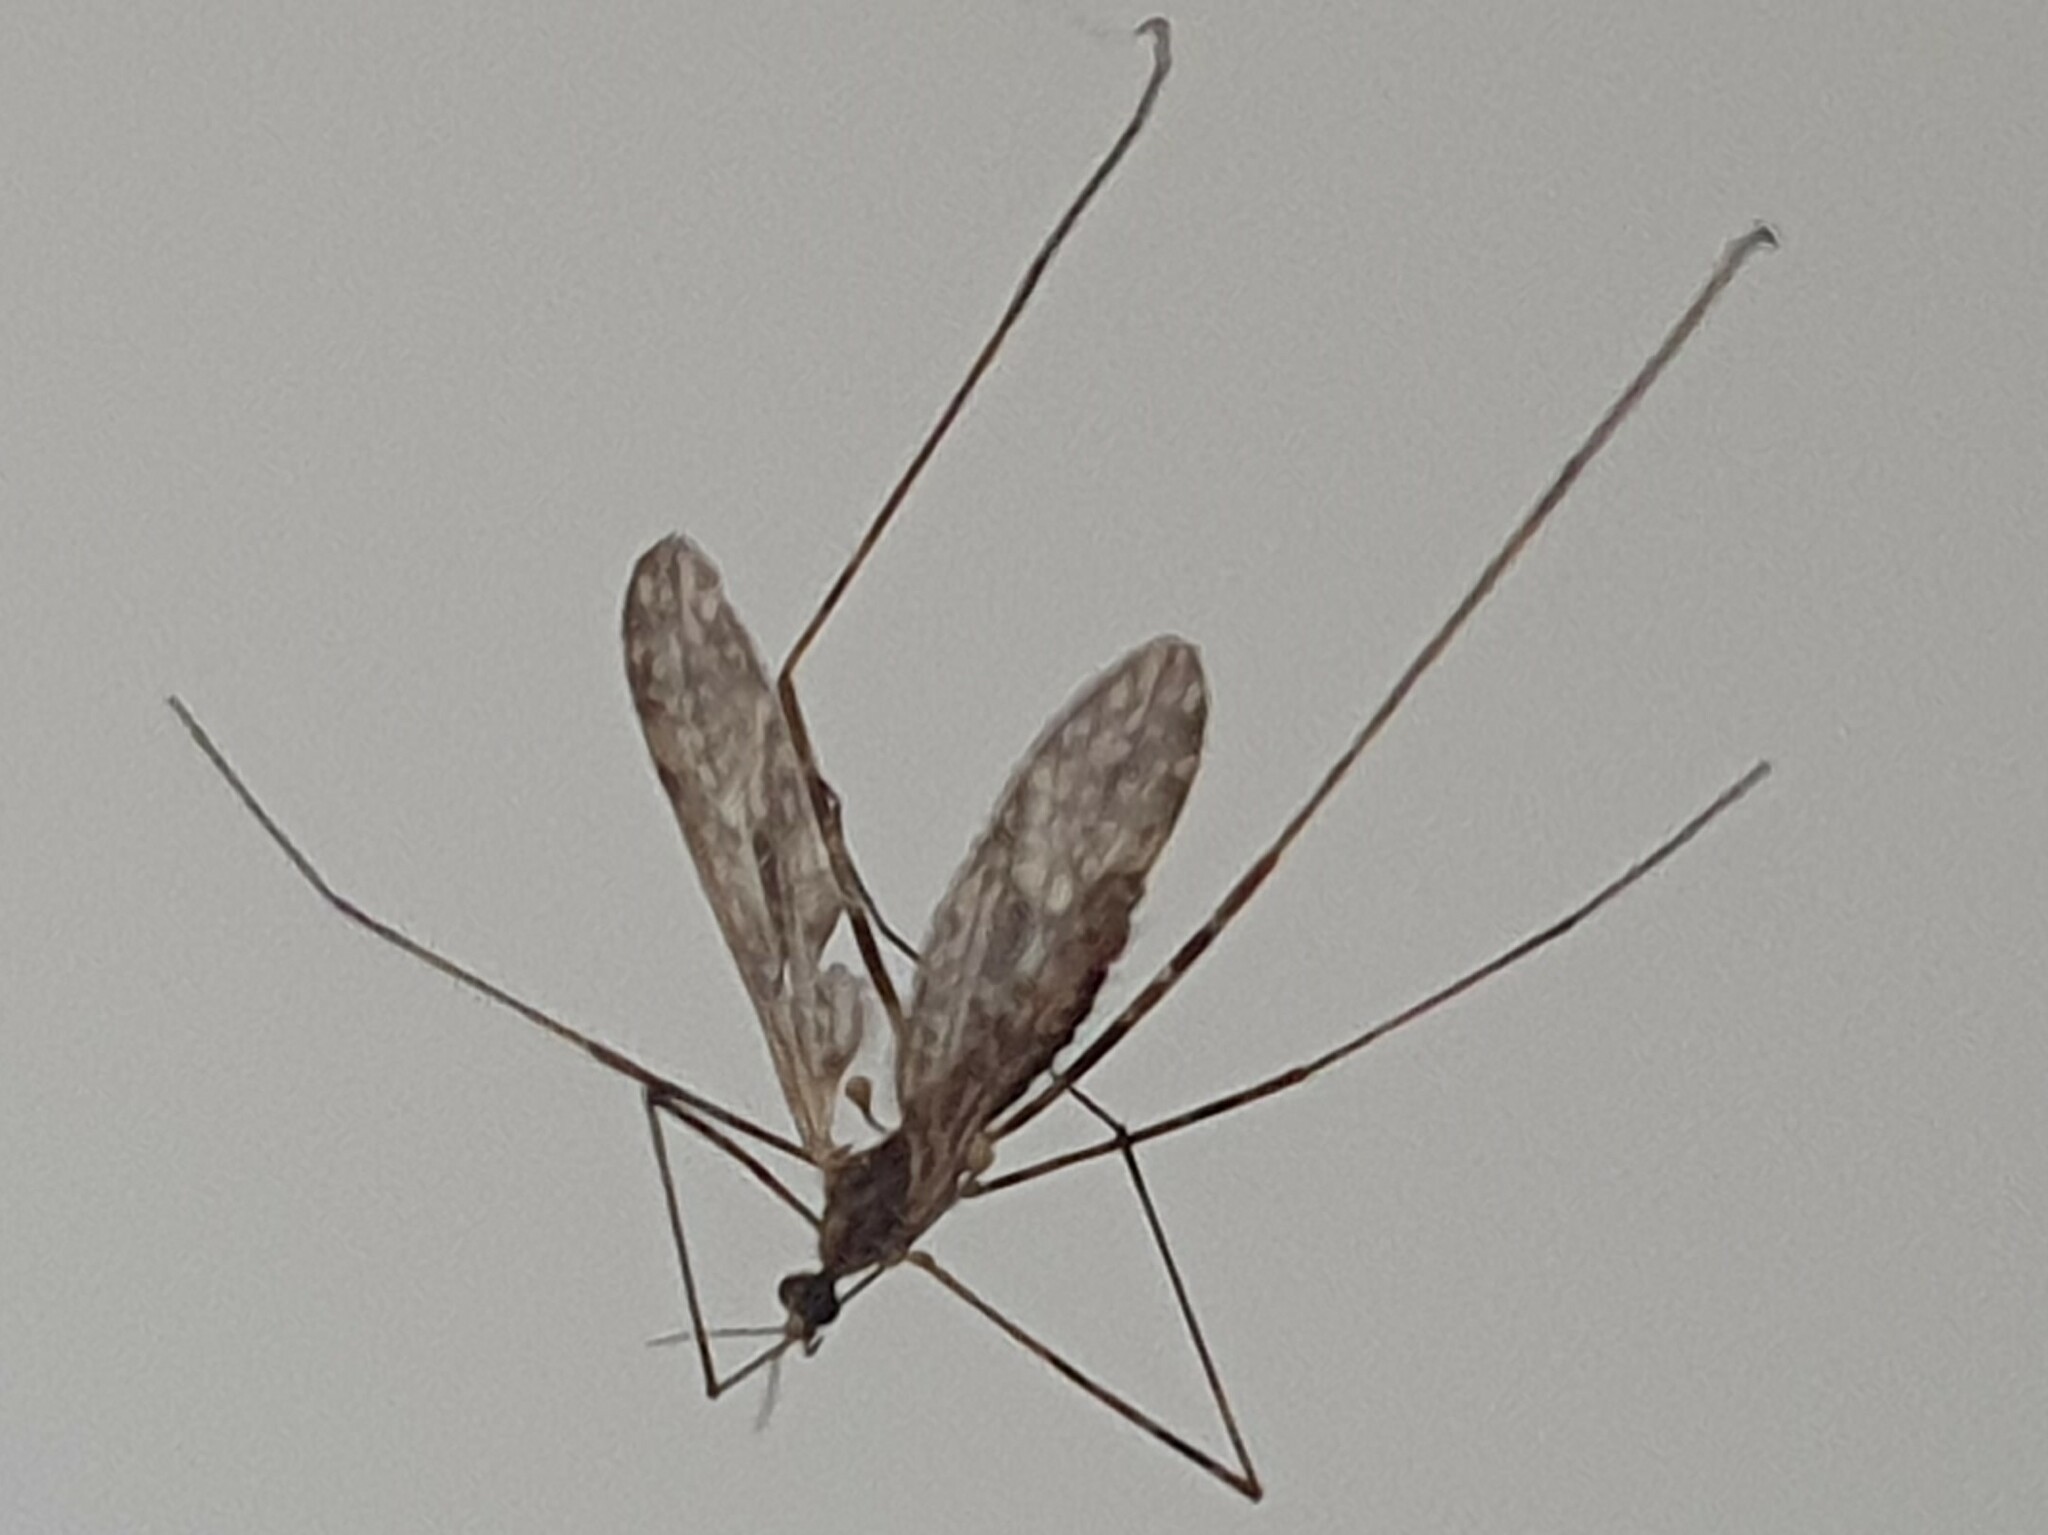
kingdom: Animalia
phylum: Arthropoda
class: Insecta
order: Diptera
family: Limoniidae
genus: Amphineurus
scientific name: Amphineurus hudsoni
